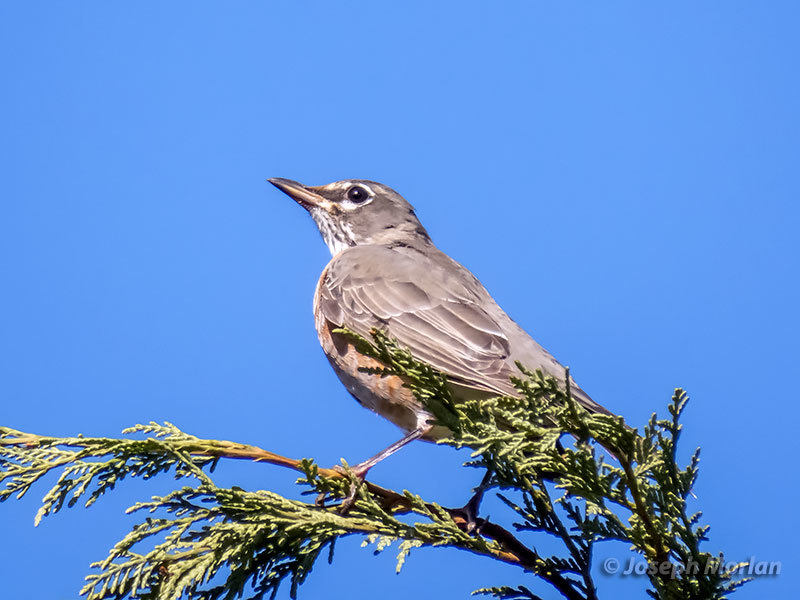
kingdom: Animalia
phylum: Chordata
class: Aves
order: Passeriformes
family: Turdidae
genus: Turdus
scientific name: Turdus migratorius
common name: American robin
